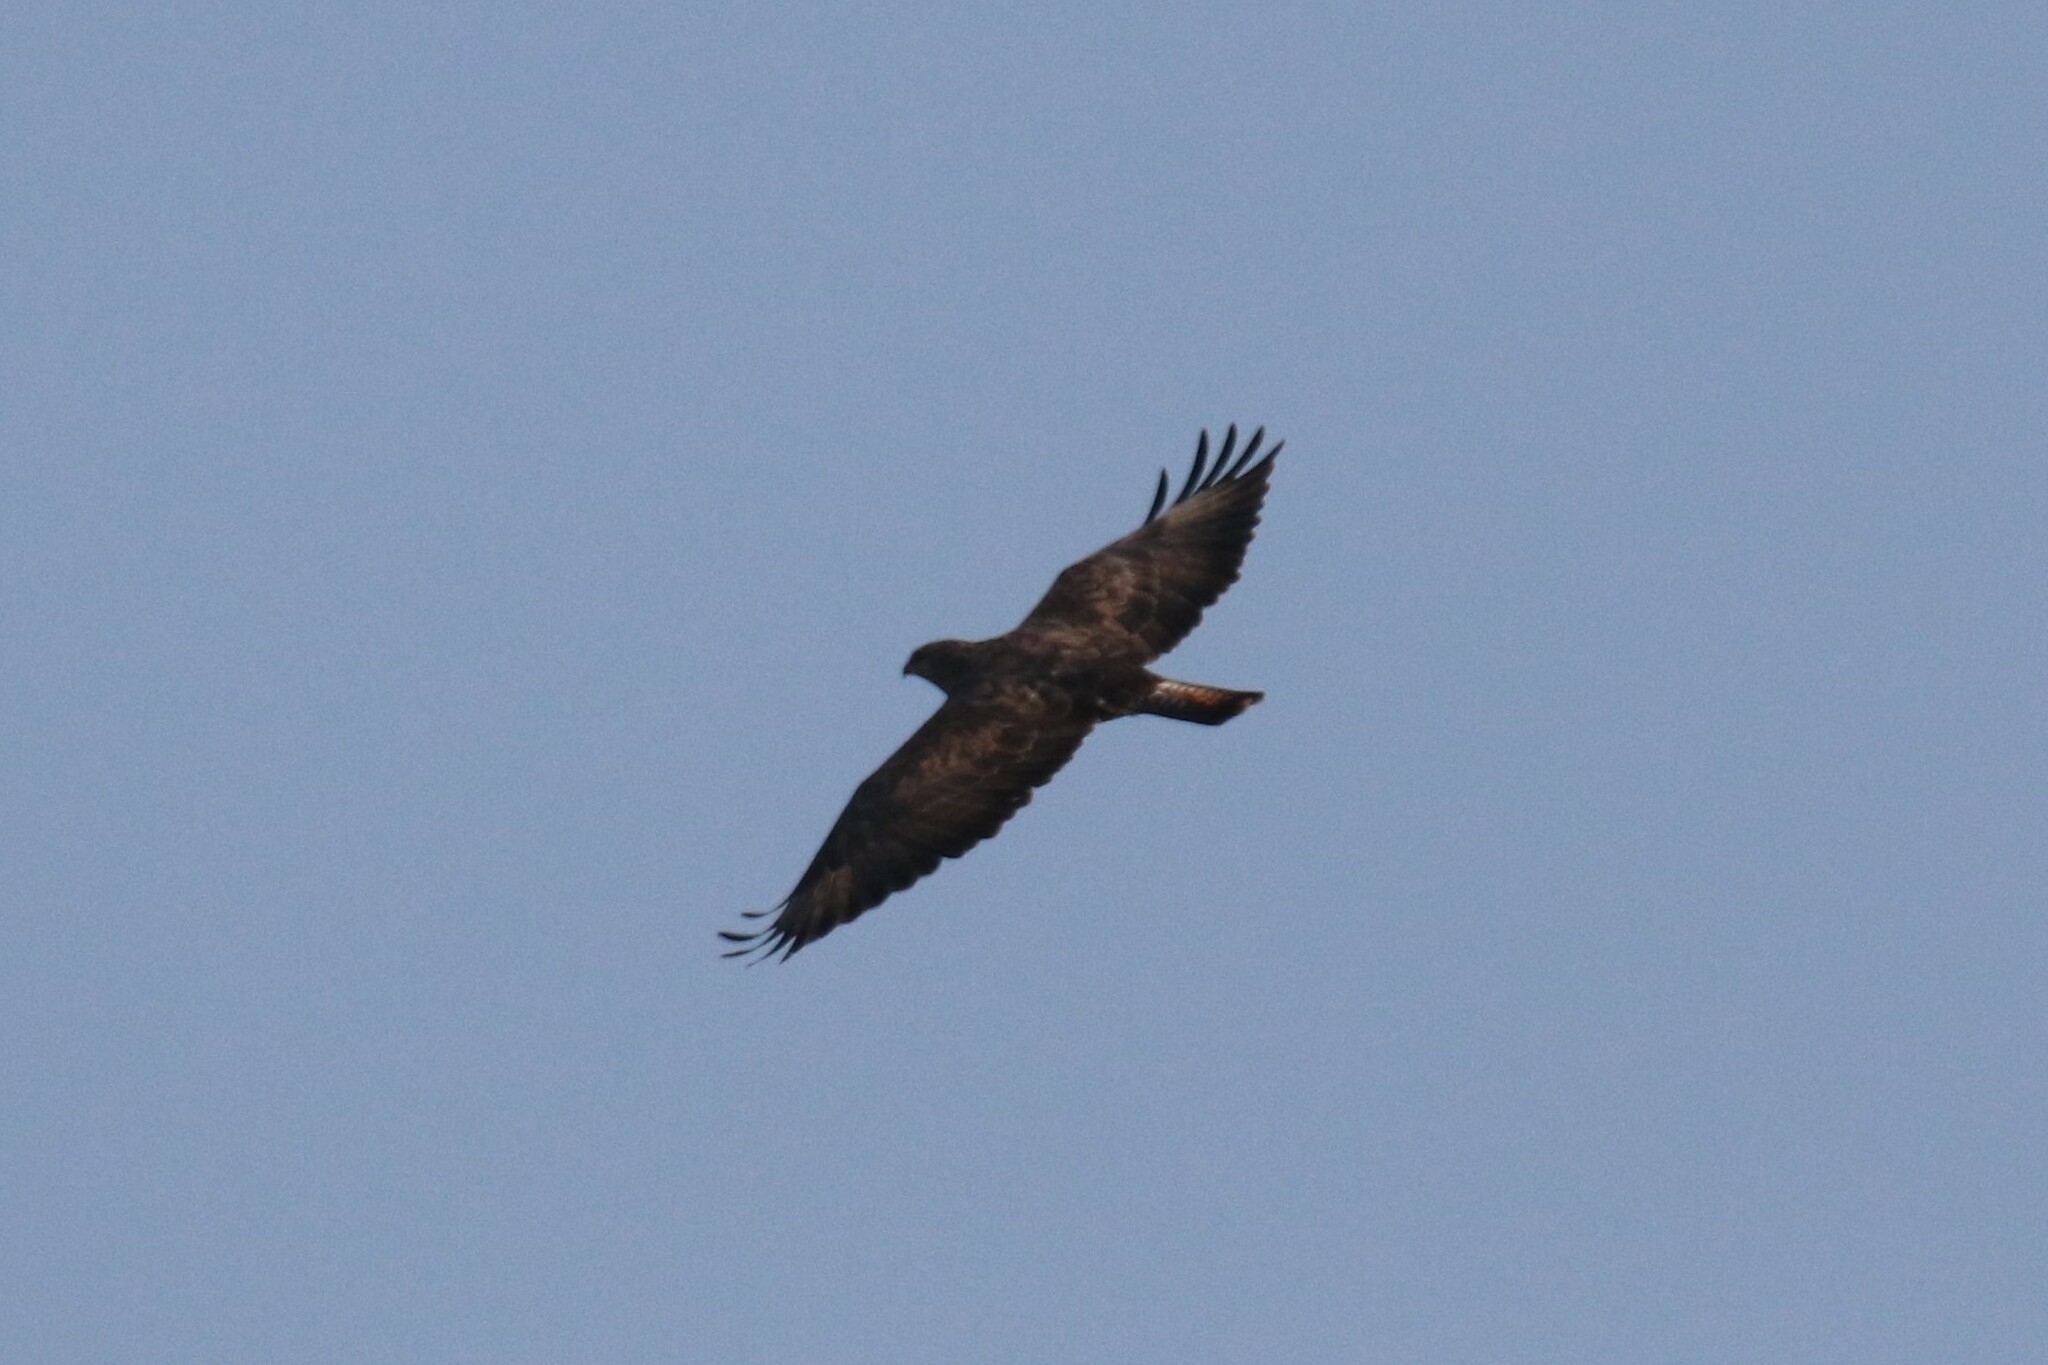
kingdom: Animalia
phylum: Chordata
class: Aves
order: Accipitriformes
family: Accipitridae
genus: Buteo
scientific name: Buteo buteo
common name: Common buzzard
